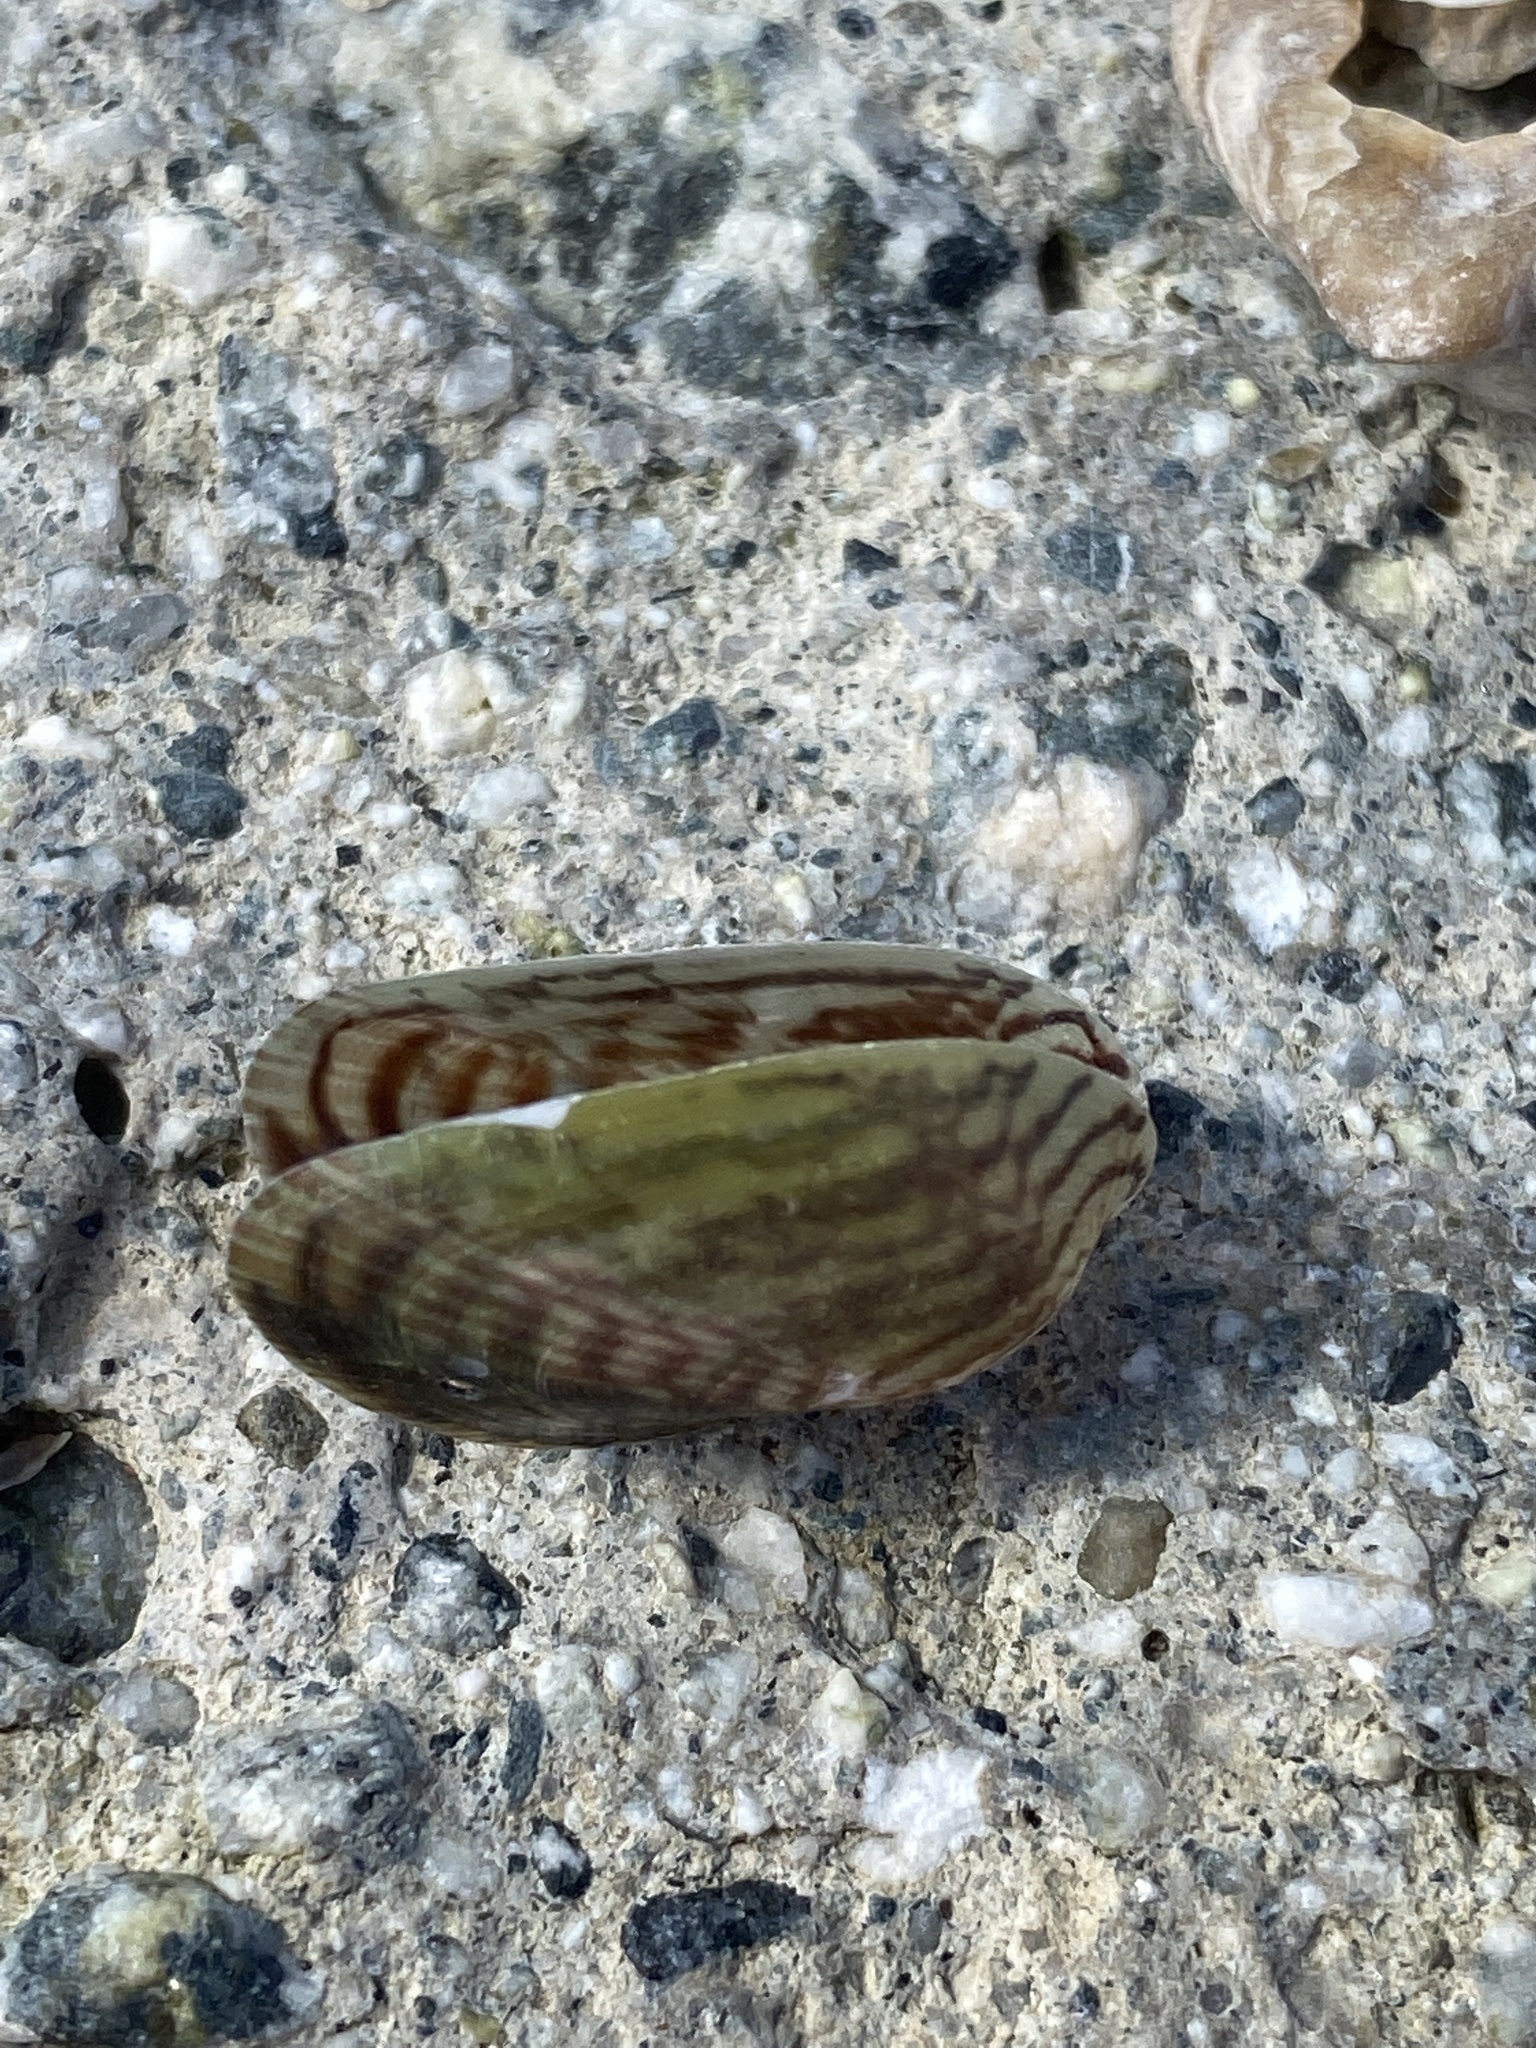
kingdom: Animalia
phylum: Mollusca
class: Bivalvia
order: Mytilida
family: Mytilidae
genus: Arcuatula
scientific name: Arcuatula senhousia
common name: Asian mussel
